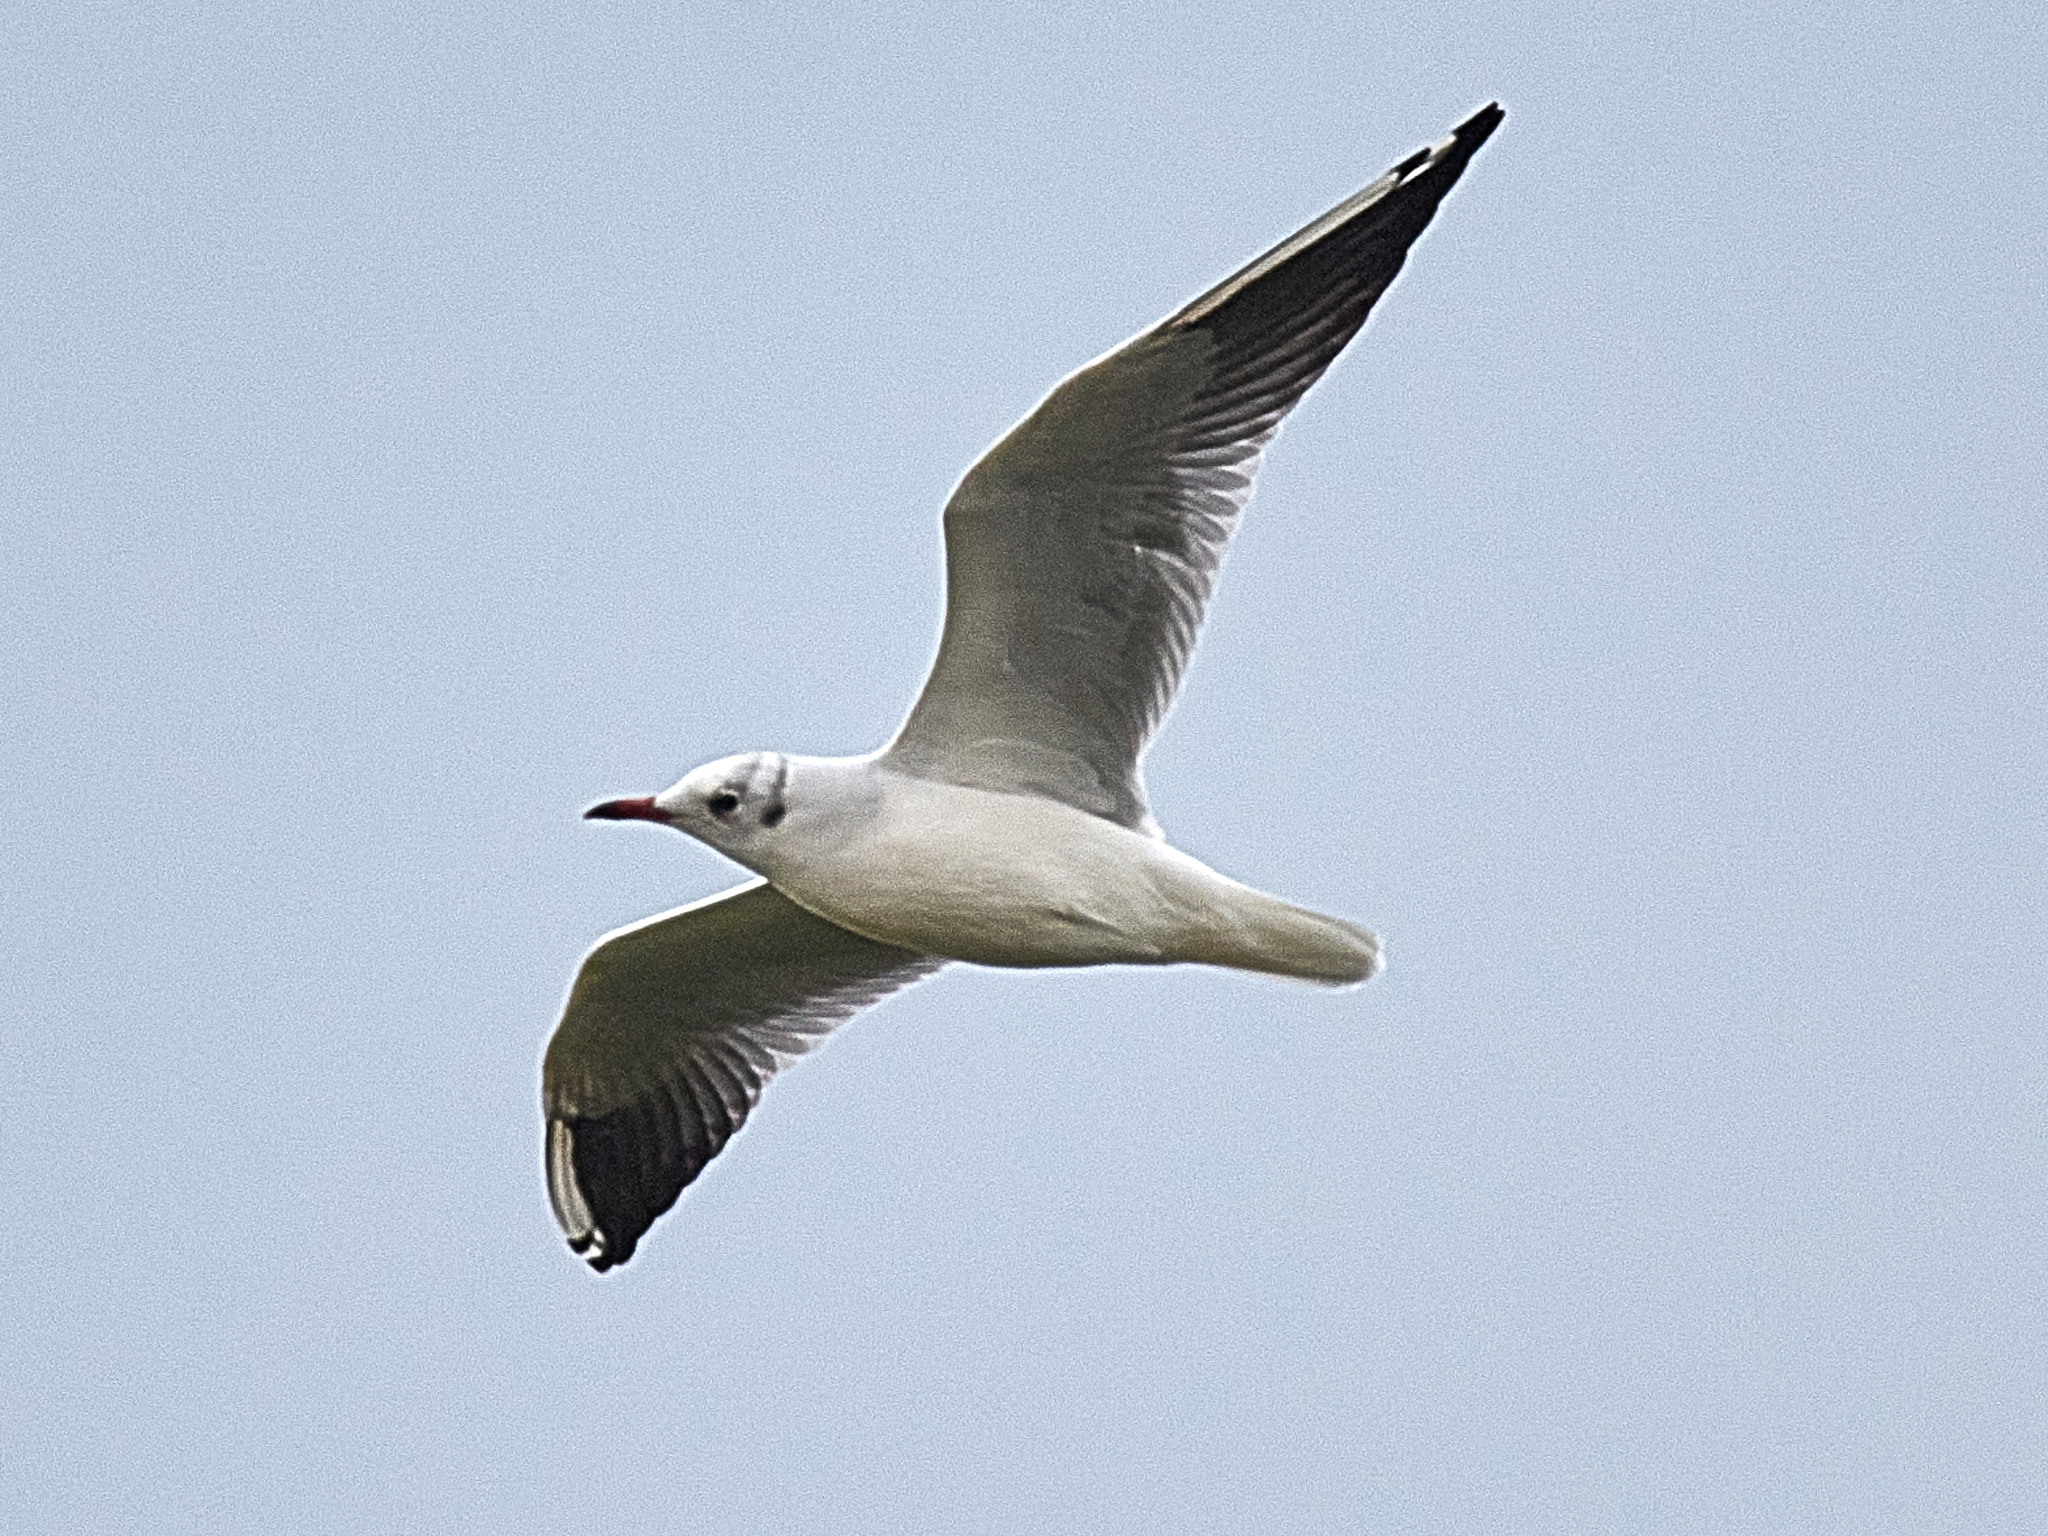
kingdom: Animalia
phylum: Chordata
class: Aves
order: Charadriiformes
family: Laridae
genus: Chroicocephalus
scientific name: Chroicocephalus ridibundus
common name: Black-headed gull
